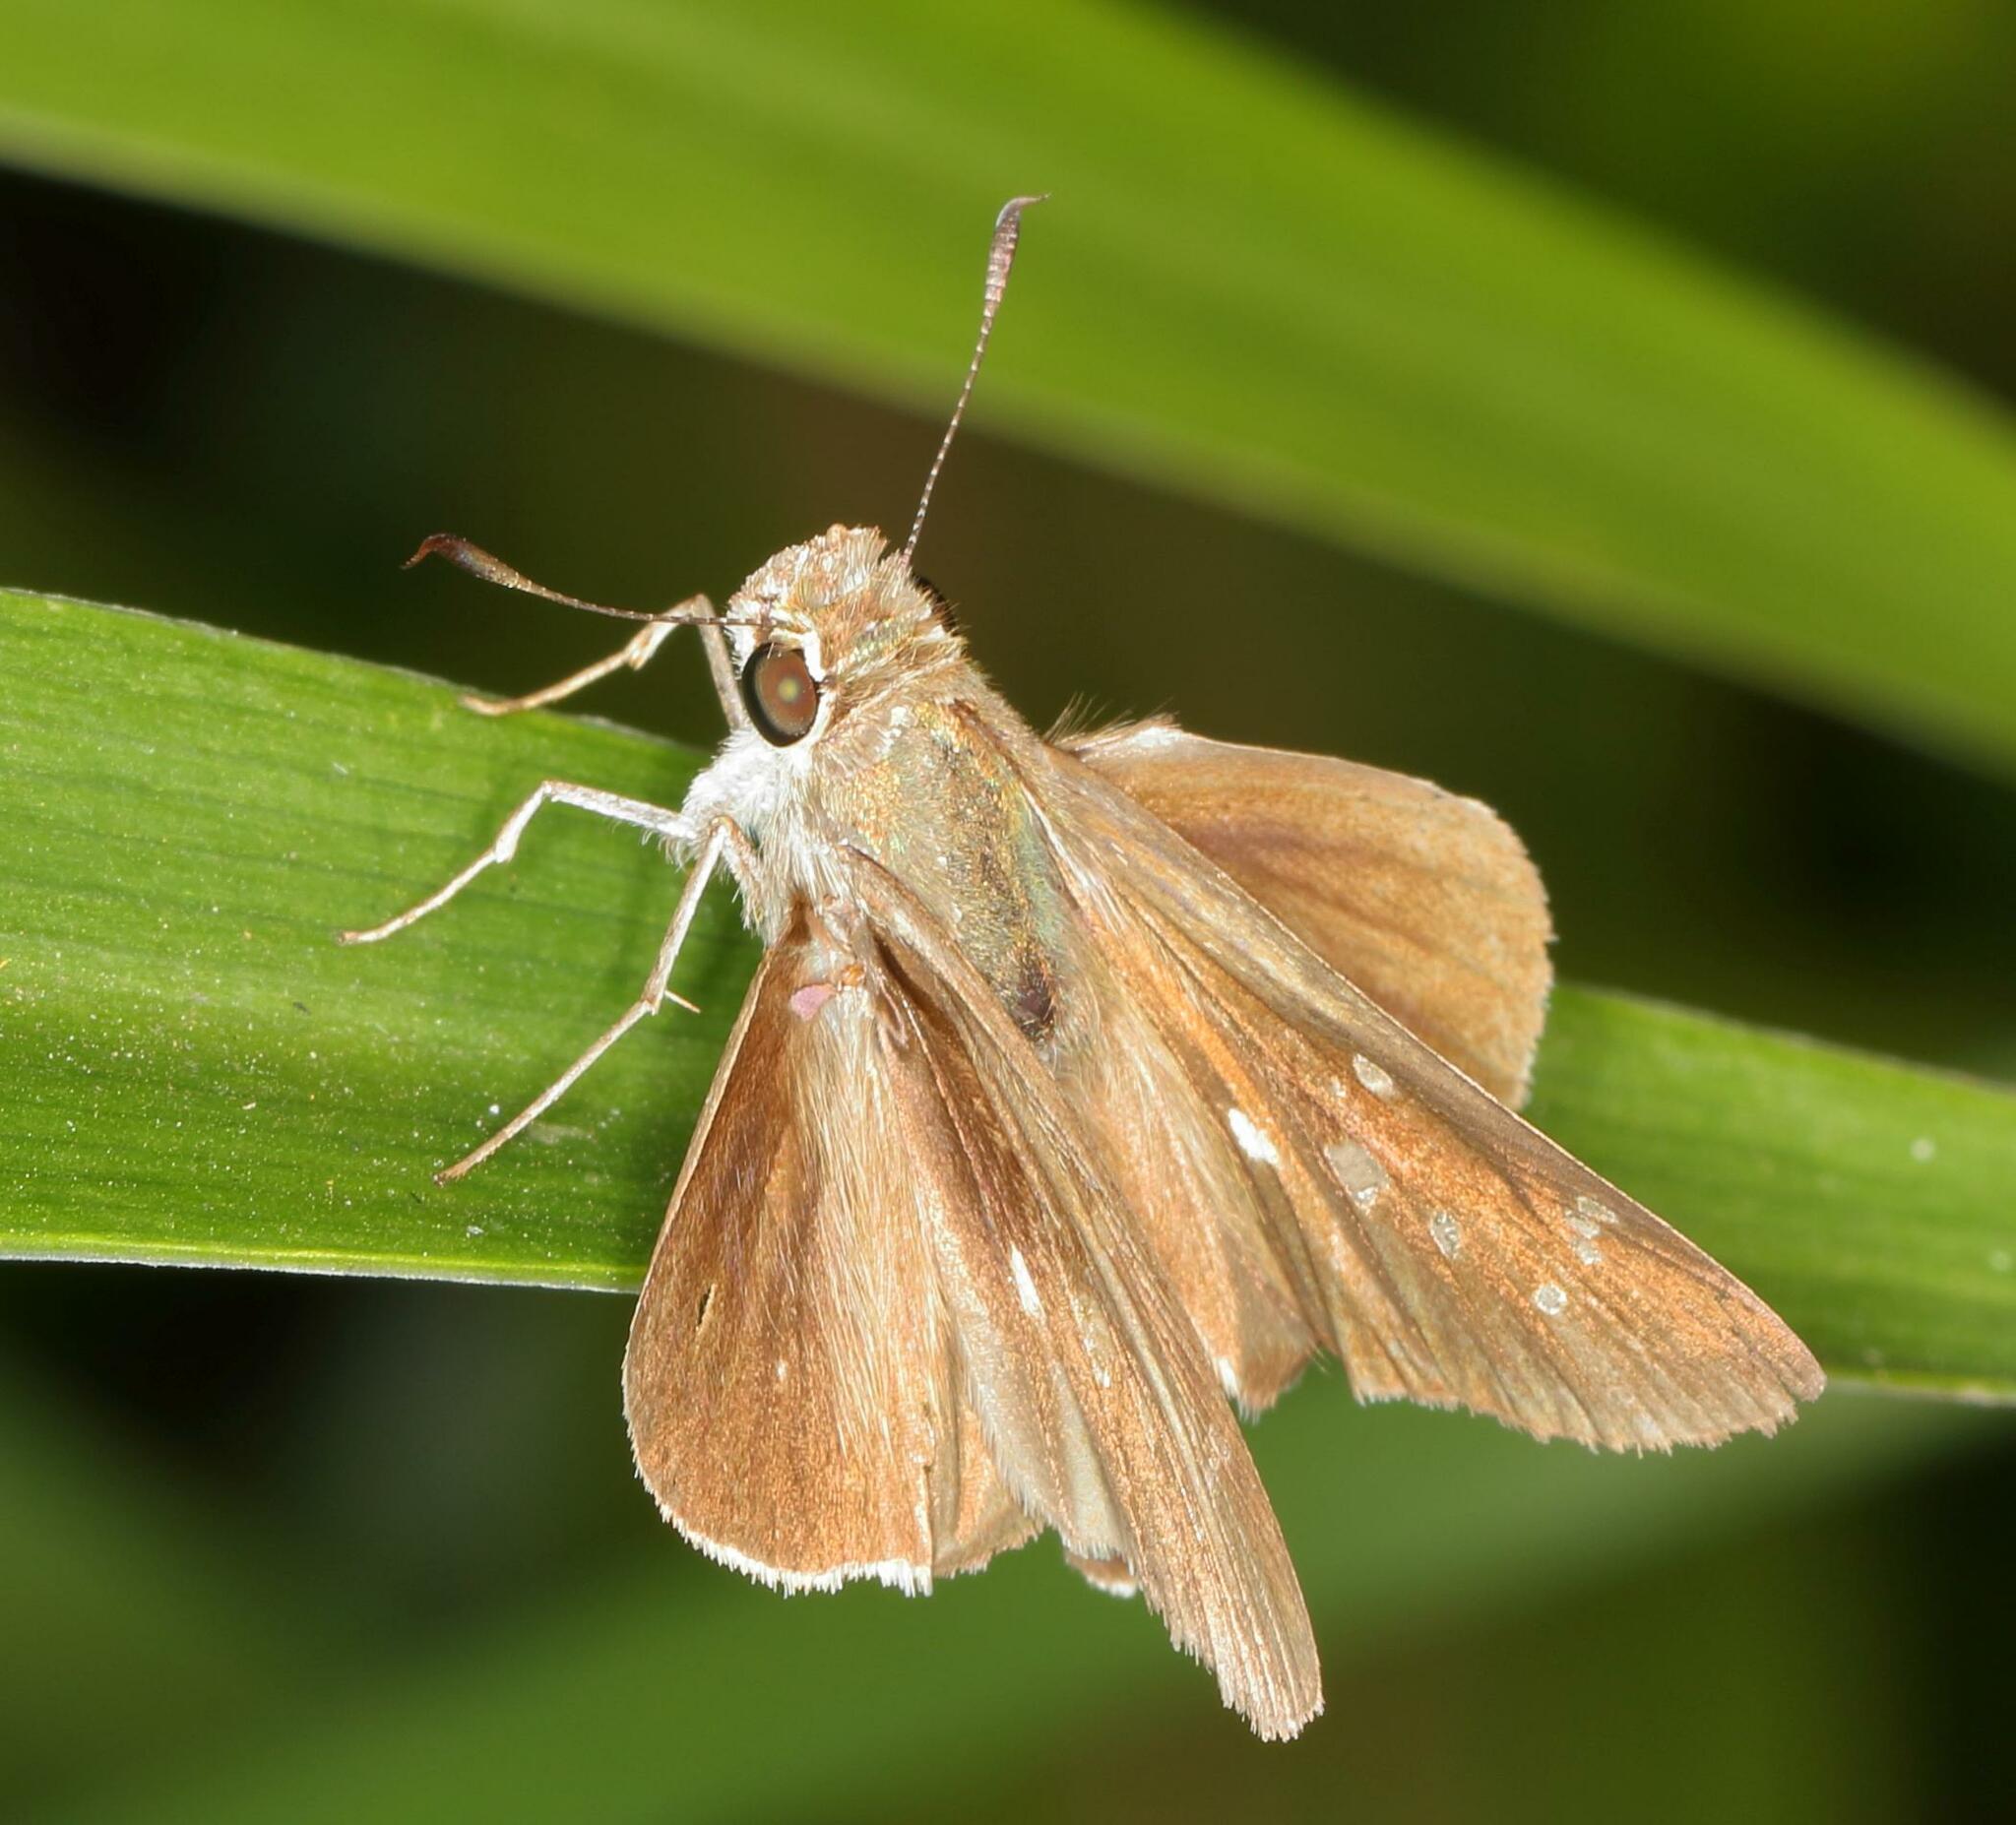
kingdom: Animalia
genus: Torbenlarsenia
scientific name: Torbenlarsenia
